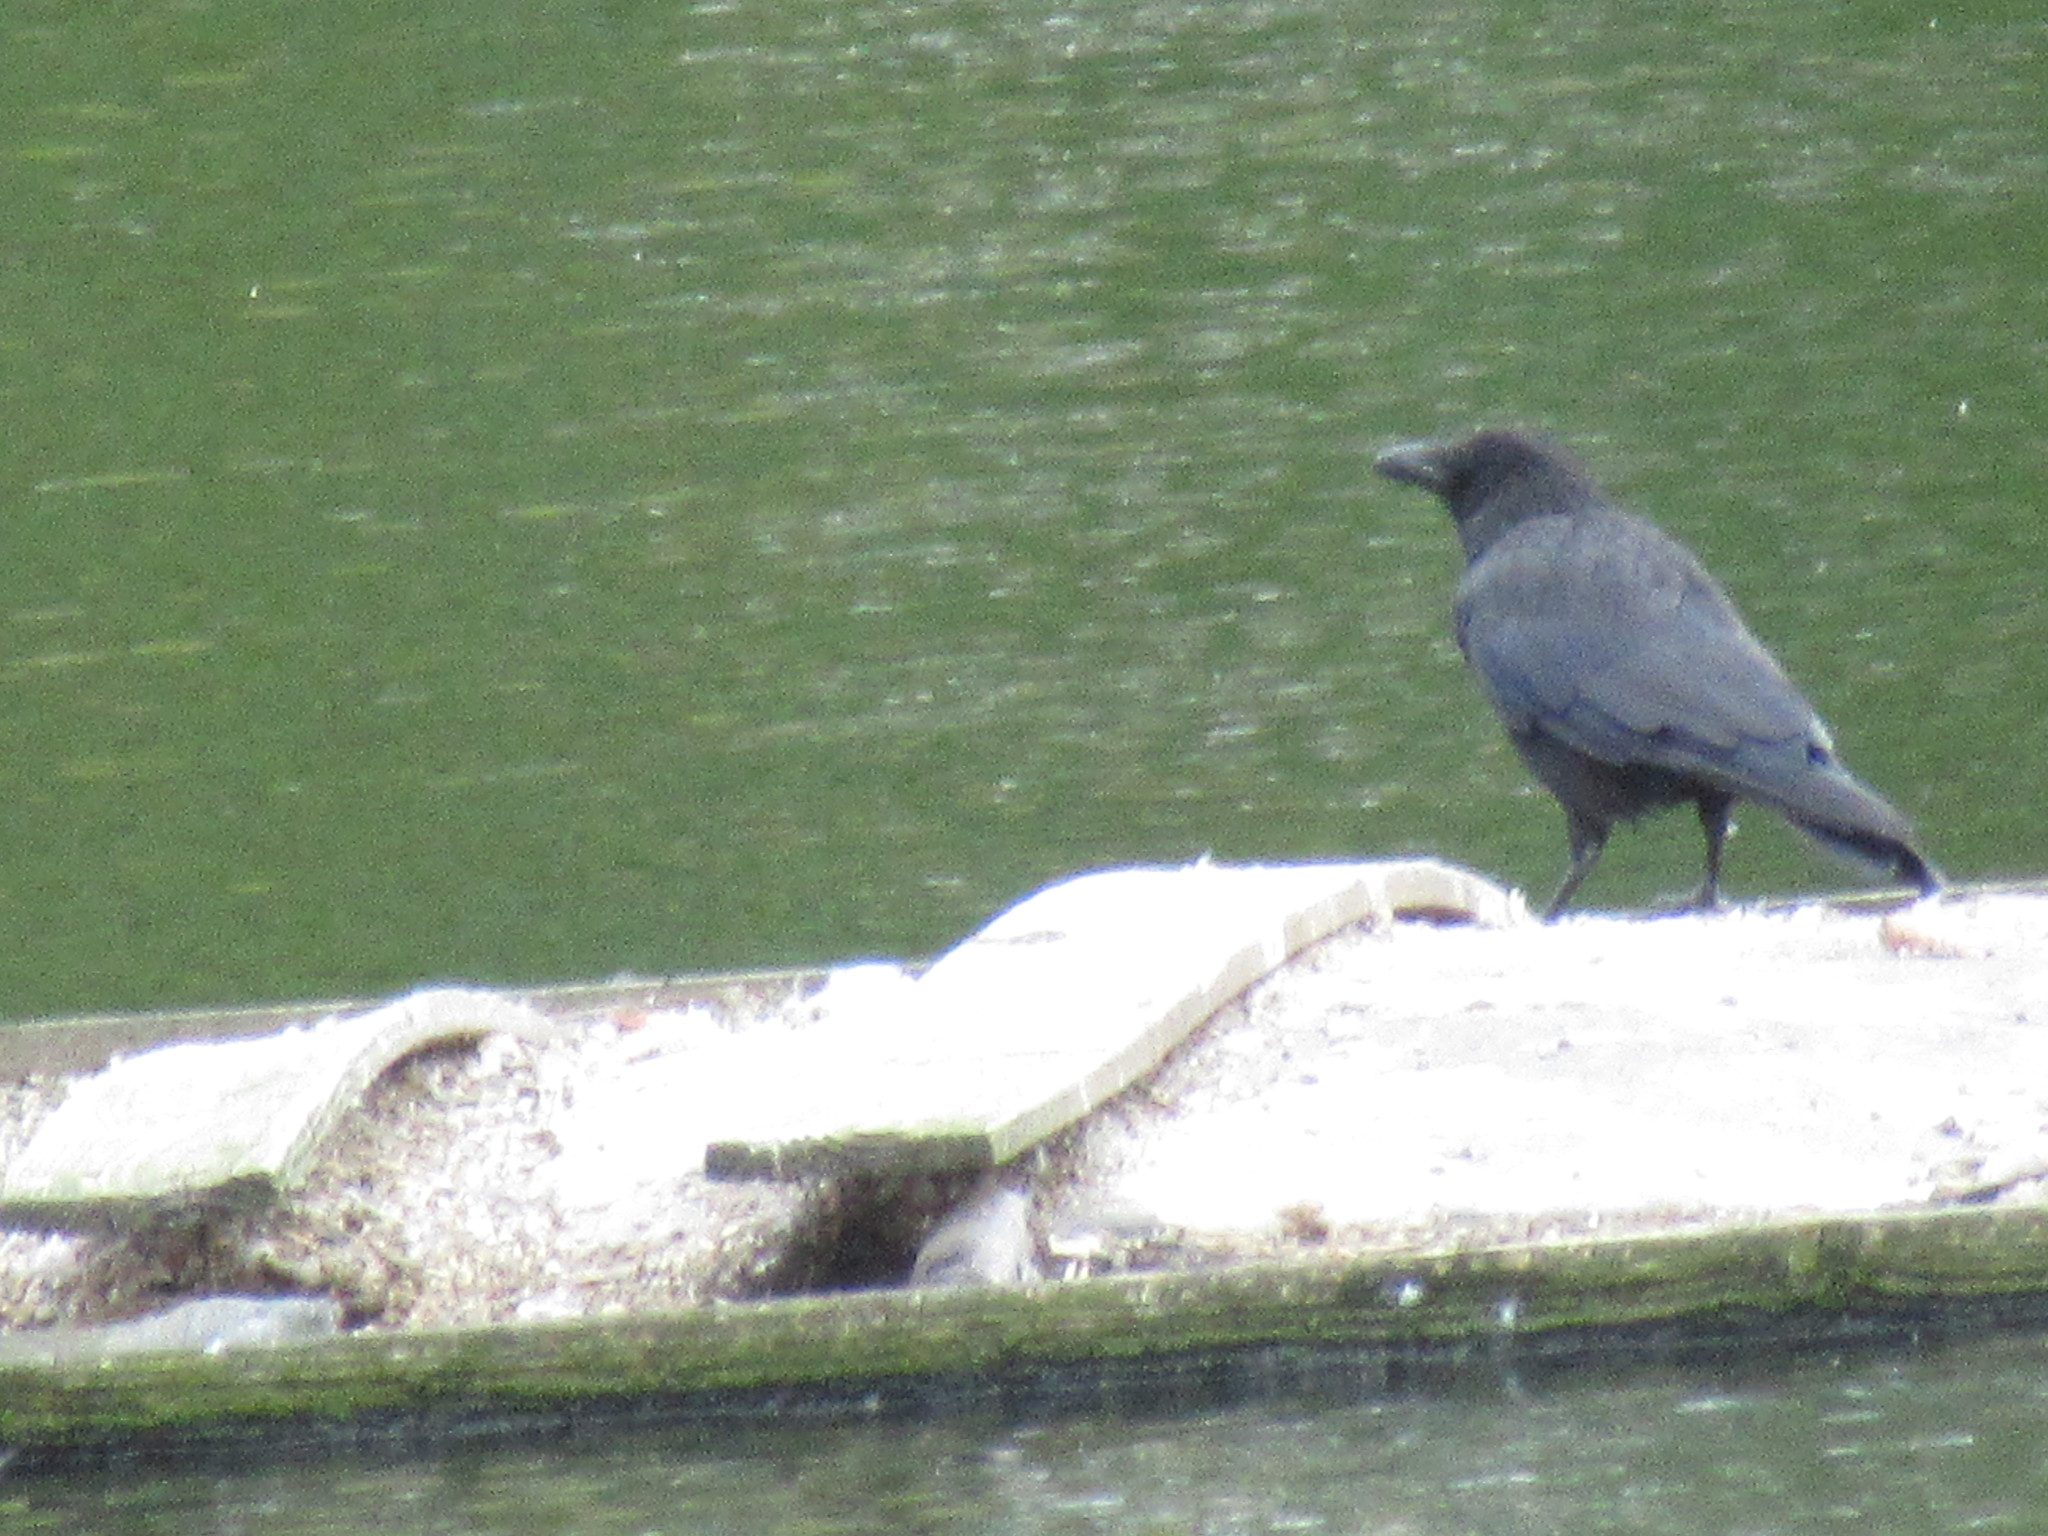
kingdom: Animalia
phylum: Chordata
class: Aves
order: Passeriformes
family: Corvidae
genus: Corvus
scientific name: Corvus corone
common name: Carrion crow
